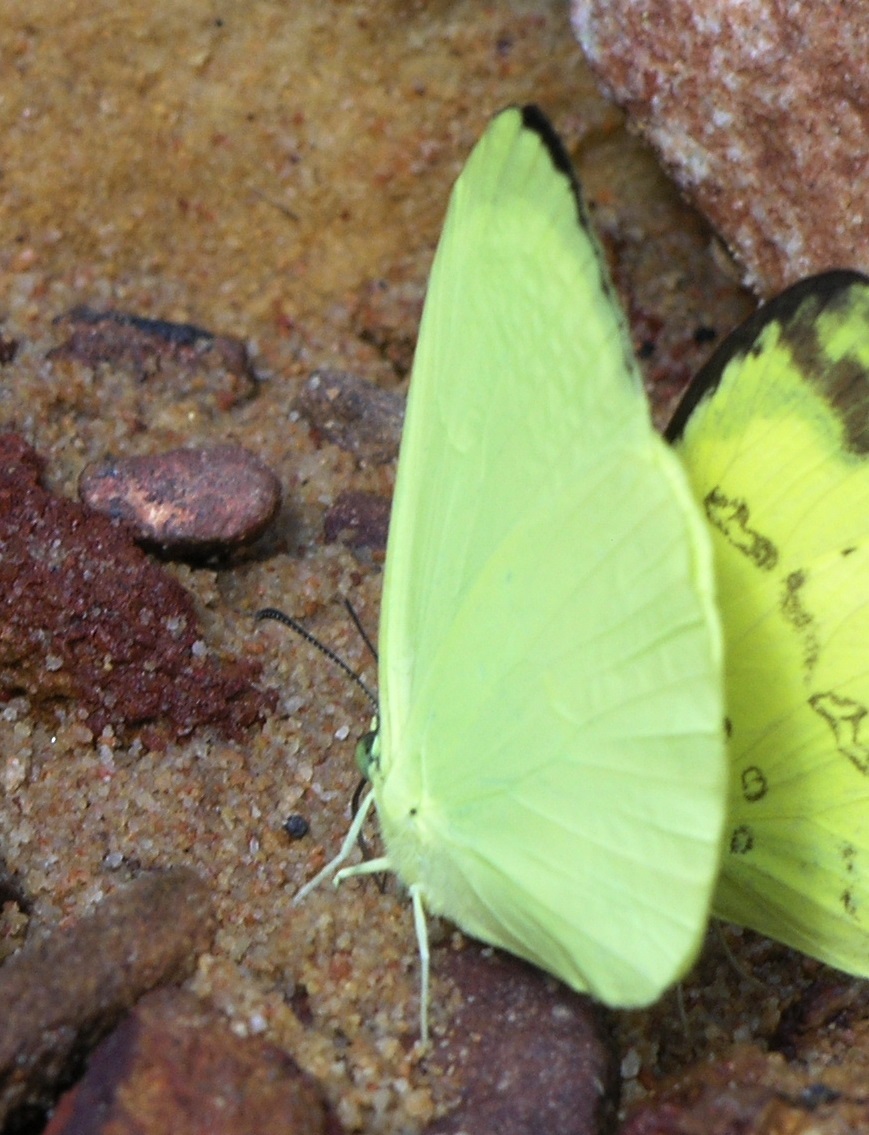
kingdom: Animalia
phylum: Arthropoda
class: Insecta
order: Lepidoptera
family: Pieridae
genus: Gandaca
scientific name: Gandaca harina
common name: Tree yellow
